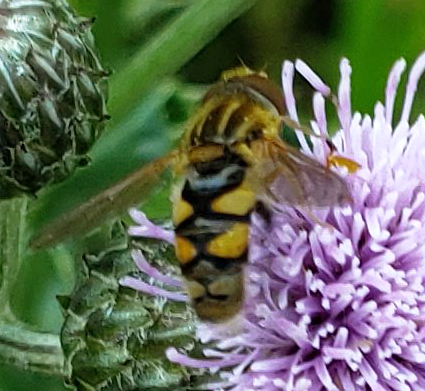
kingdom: Animalia
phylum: Arthropoda
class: Insecta
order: Diptera
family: Syrphidae
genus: Parhelophilus
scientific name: Parhelophilus integer
